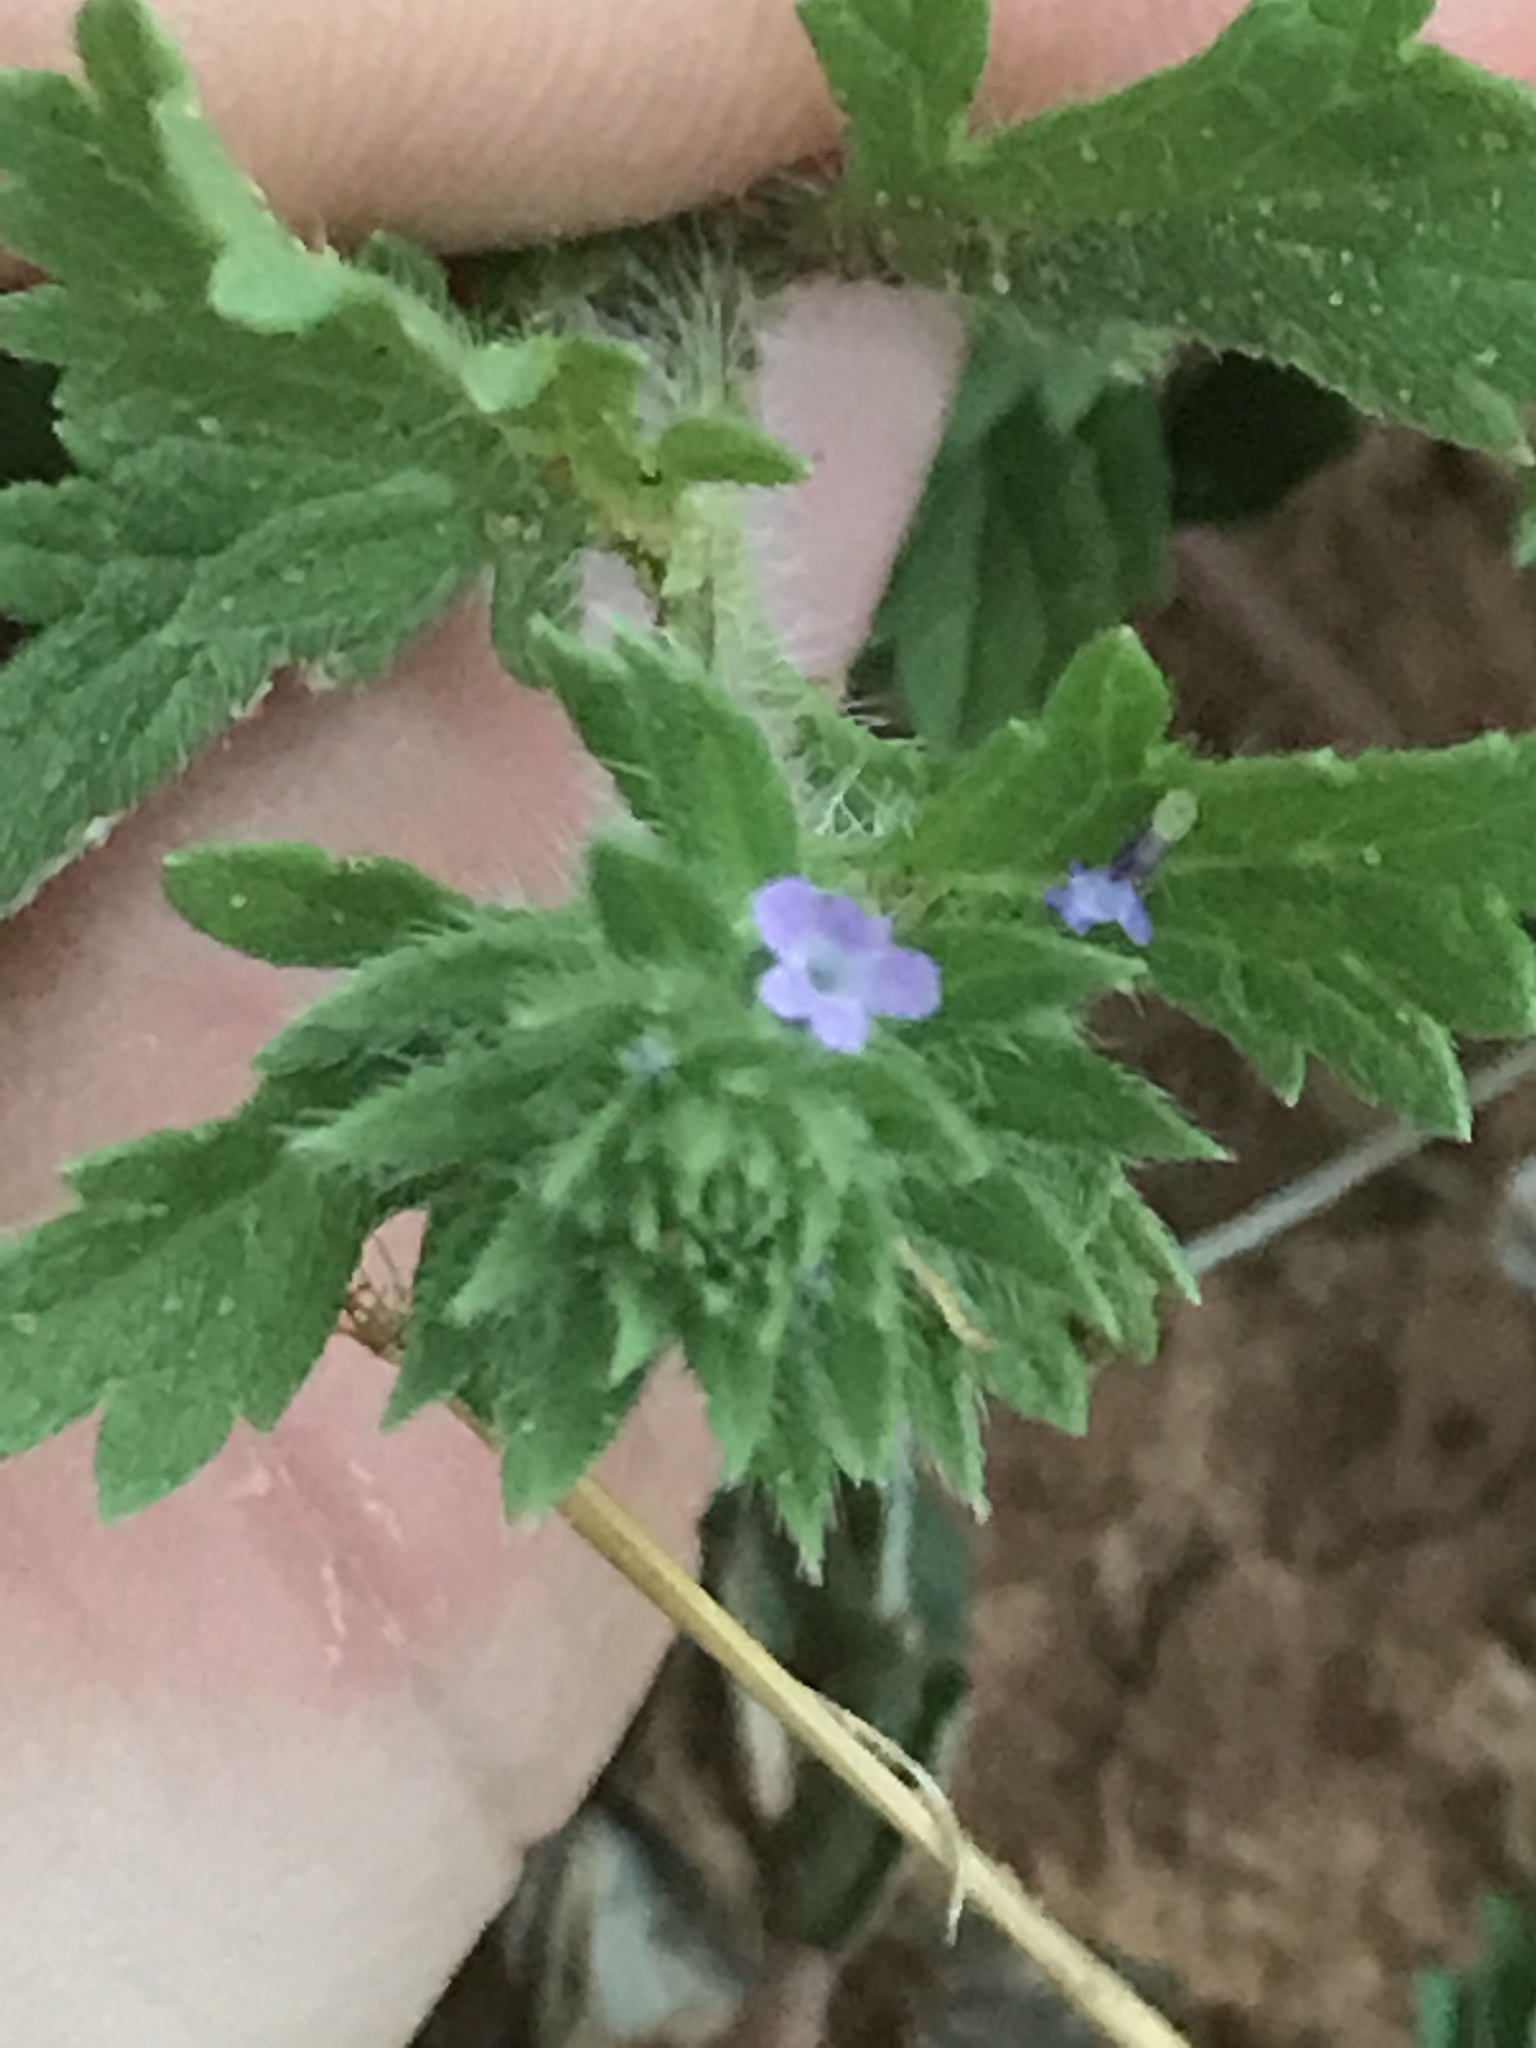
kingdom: Plantae
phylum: Tracheophyta
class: Magnoliopsida
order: Lamiales
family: Verbenaceae
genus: Verbena
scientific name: Verbena bracteata
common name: Bracted vervain
